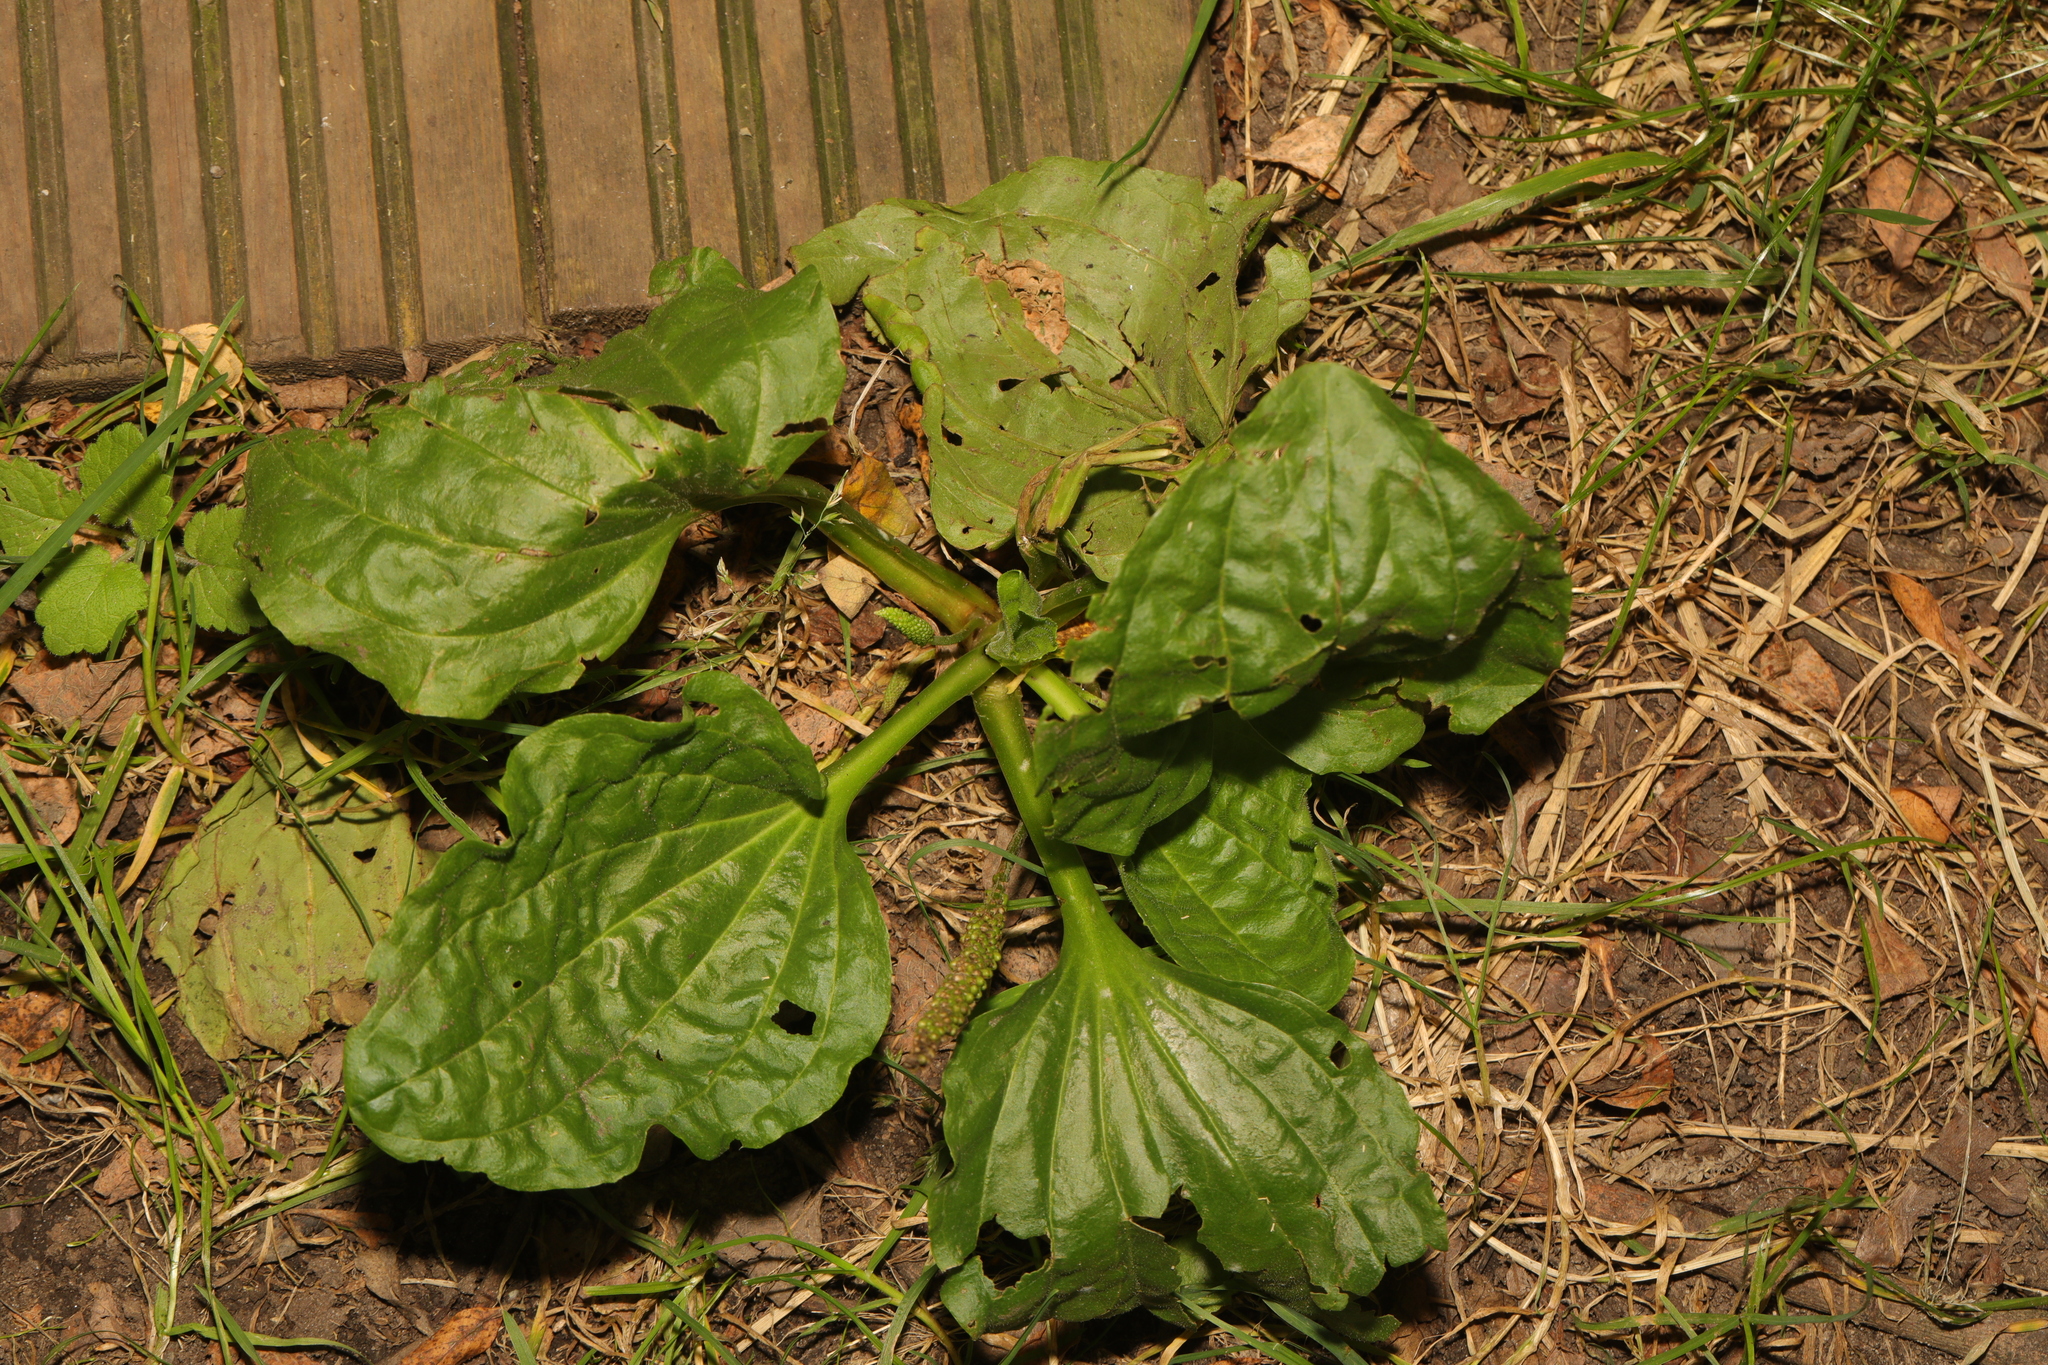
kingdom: Plantae
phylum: Tracheophyta
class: Magnoliopsida
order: Lamiales
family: Plantaginaceae
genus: Plantago
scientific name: Plantago major
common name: Common plantain
